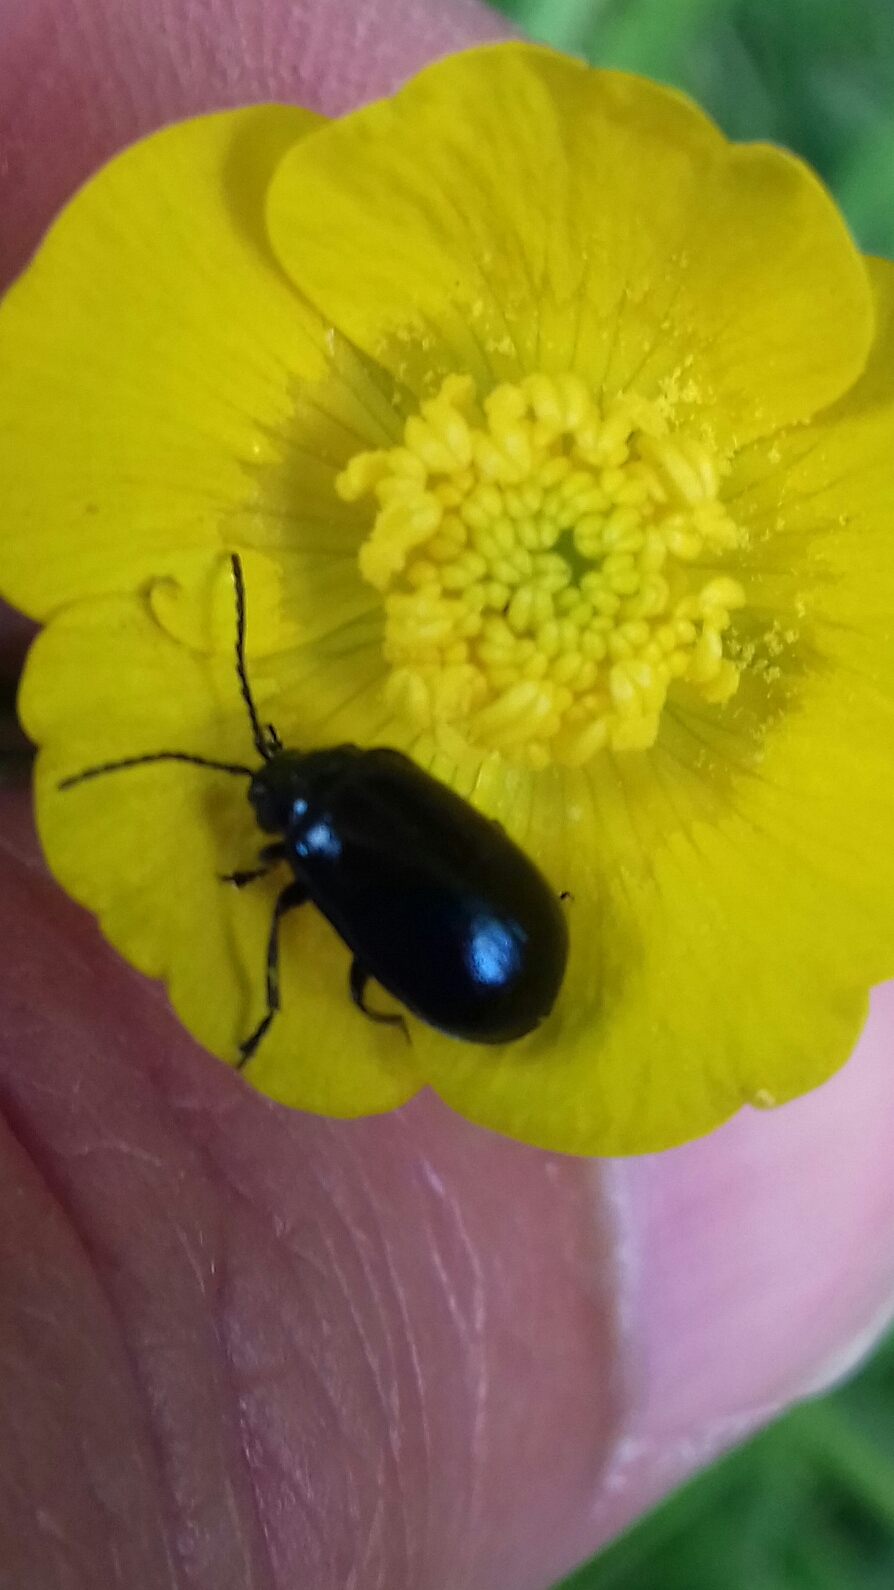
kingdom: Animalia
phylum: Arthropoda
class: Insecta
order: Coleoptera
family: Chrysomelidae
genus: Agelastica
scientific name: Agelastica alni
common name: Alder leaf beetle
